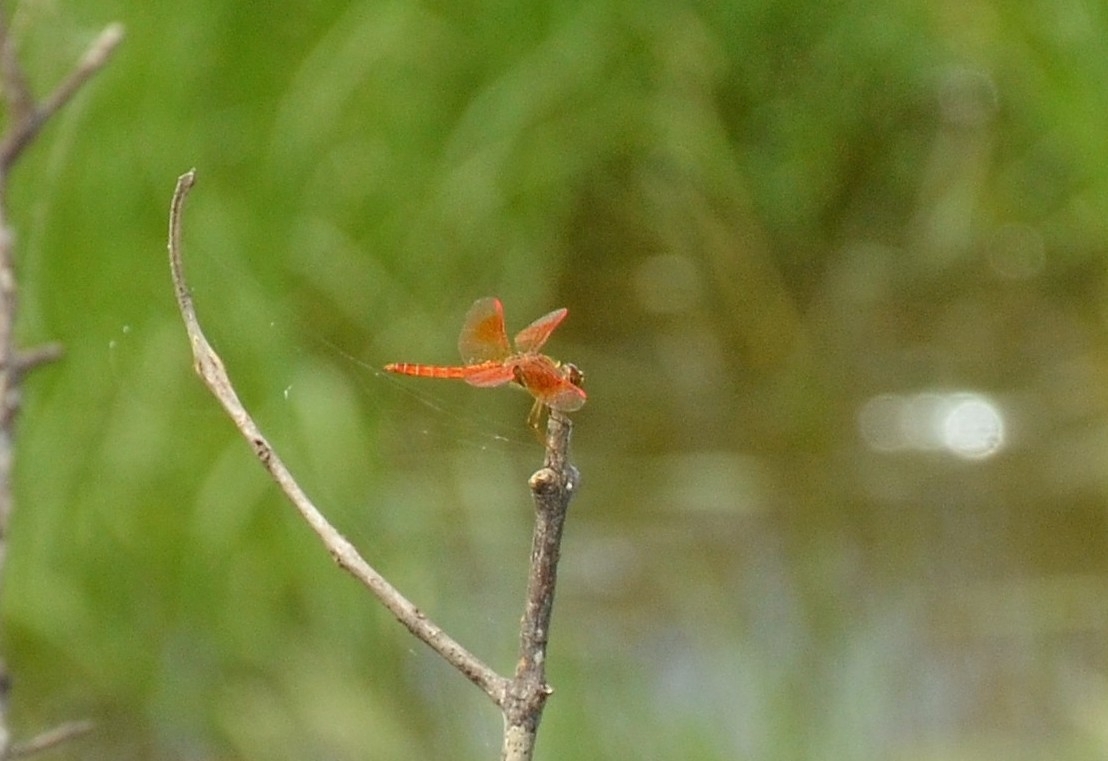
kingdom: Animalia
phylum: Arthropoda
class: Insecta
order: Odonata
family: Libellulidae
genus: Brachythemis
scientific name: Brachythemis contaminata
